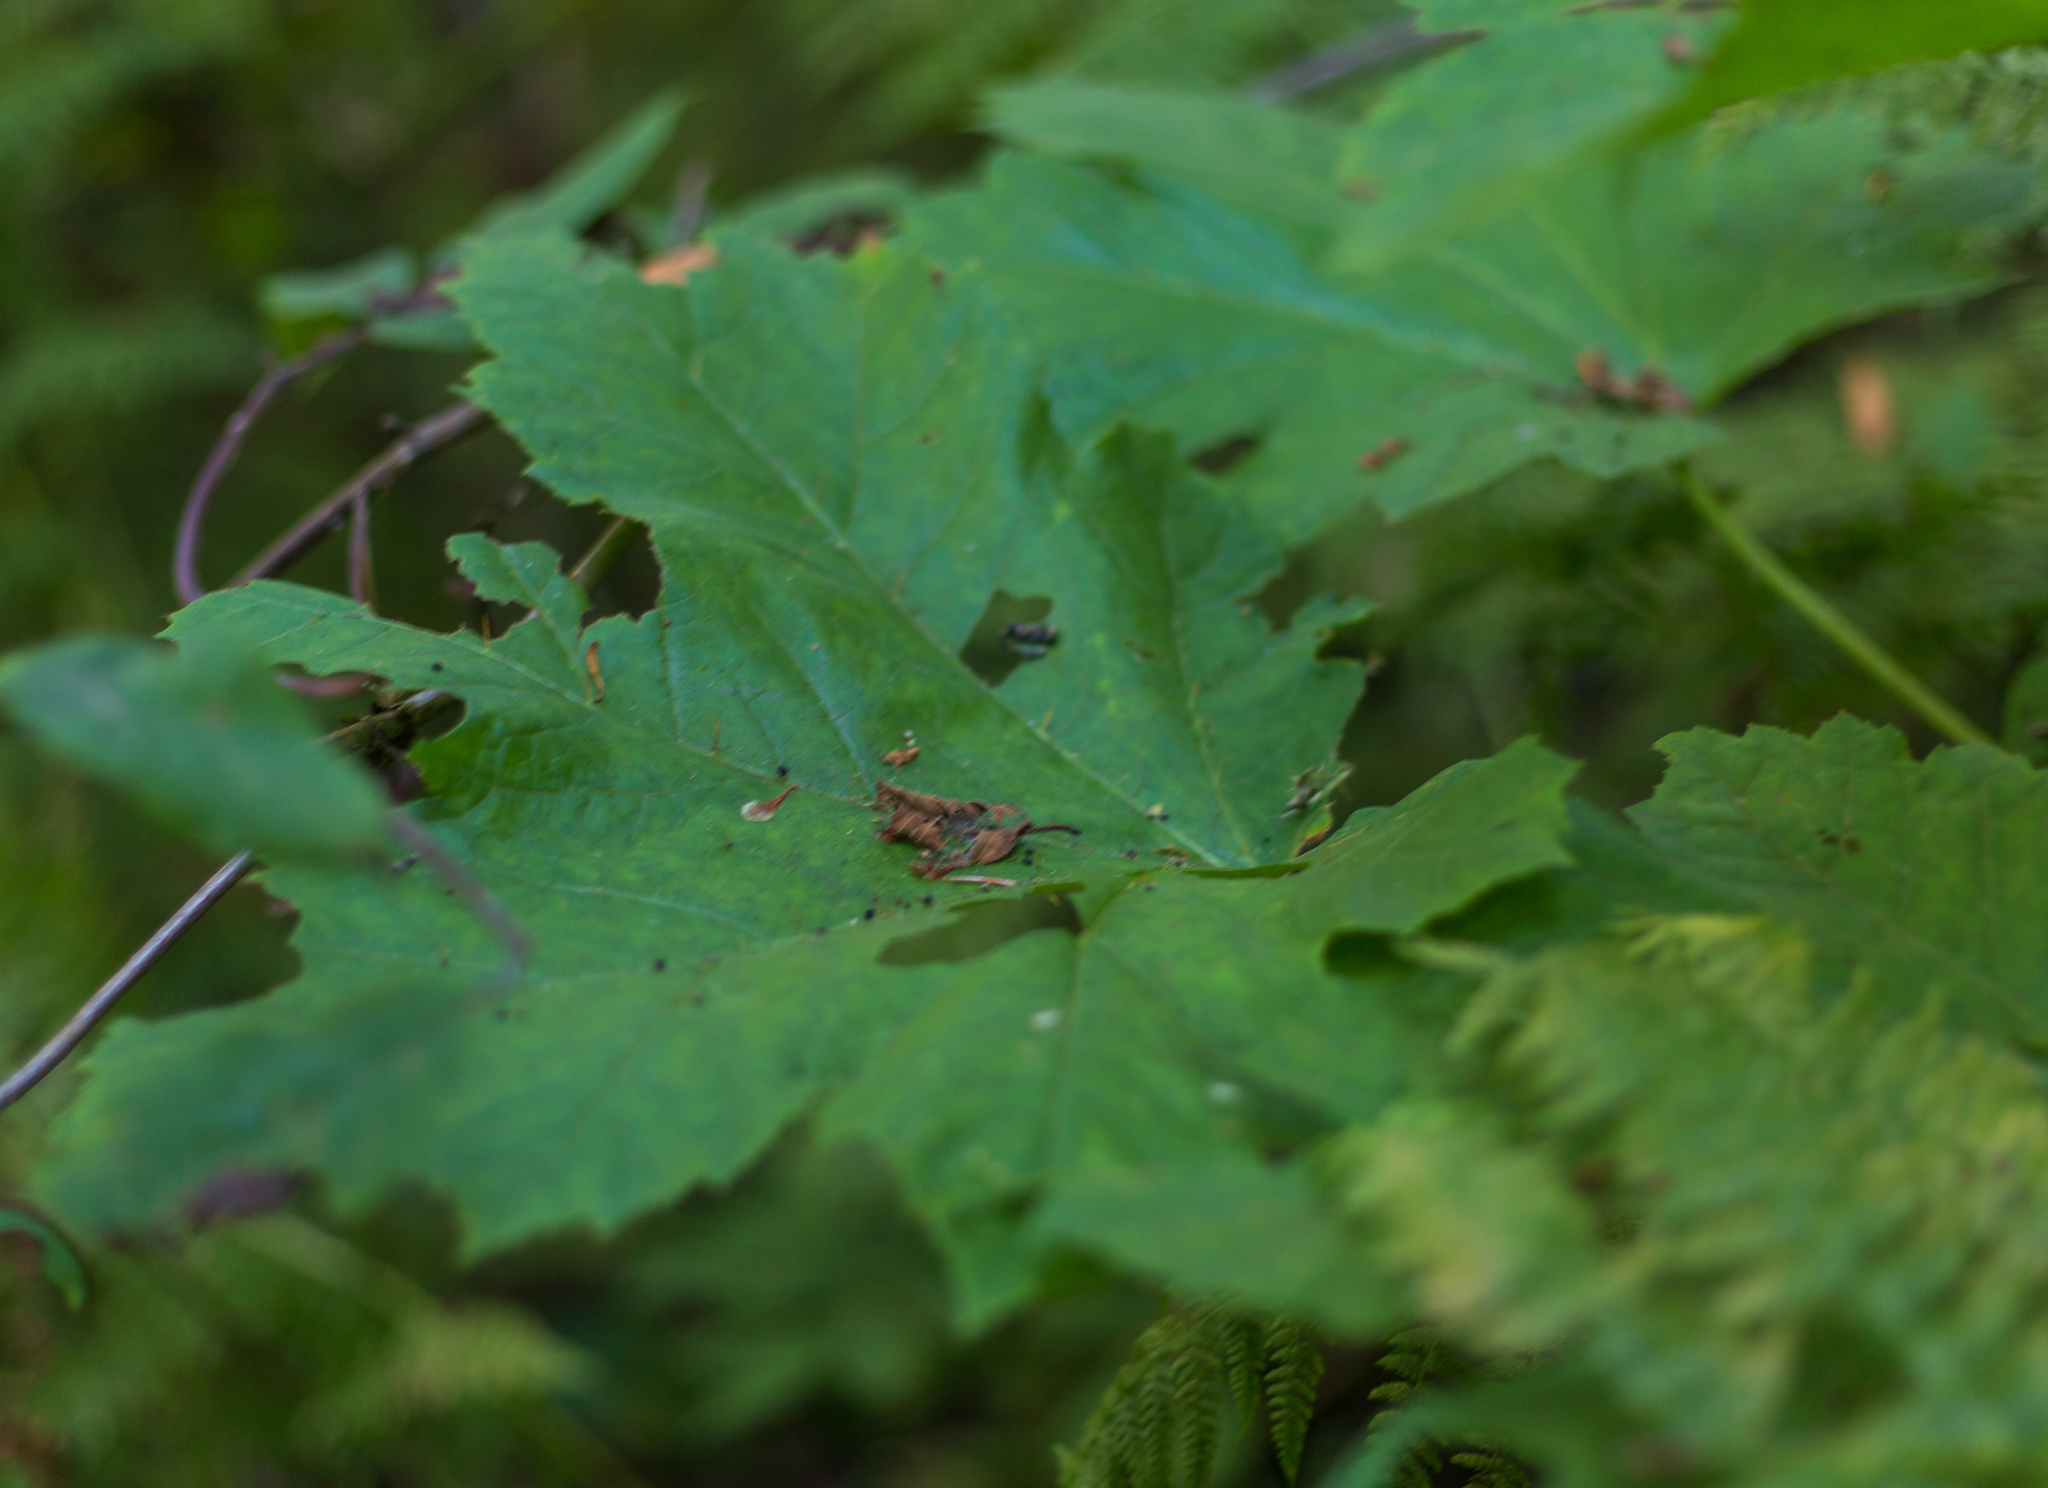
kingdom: Plantae
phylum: Tracheophyta
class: Magnoliopsida
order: Apiales
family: Araliaceae
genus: Oplopanax
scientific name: Oplopanax horridus
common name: Devil's walking-stick
